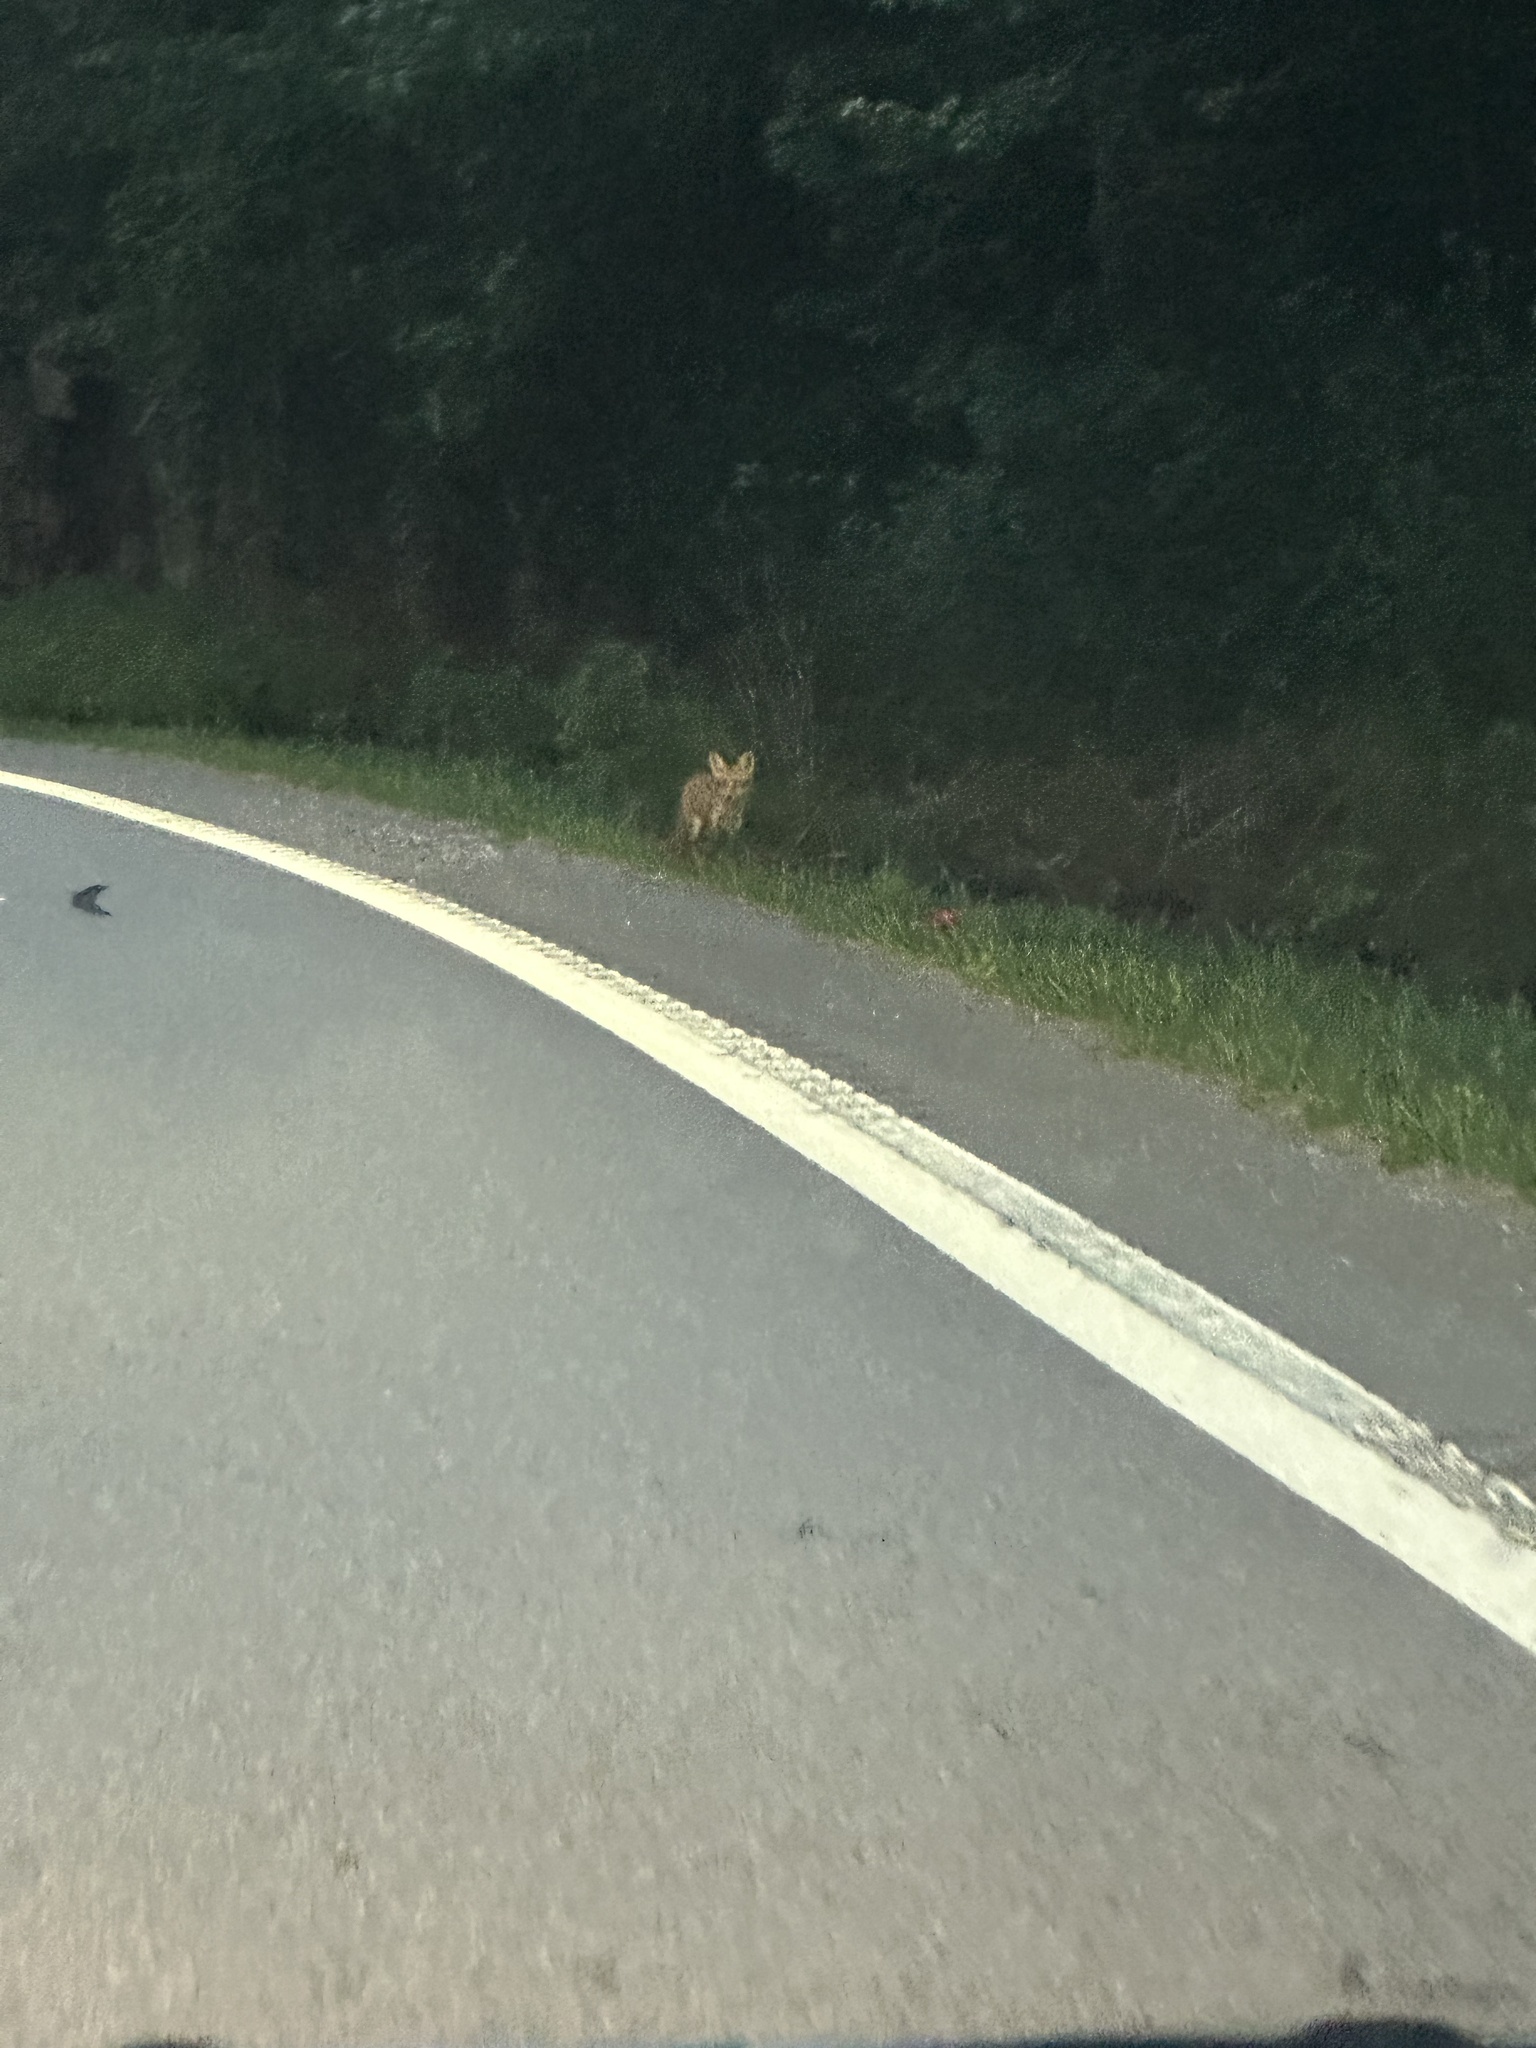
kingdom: Animalia
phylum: Chordata
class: Mammalia
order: Carnivora
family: Canidae
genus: Vulpes
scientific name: Vulpes vulpes
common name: Red fox
